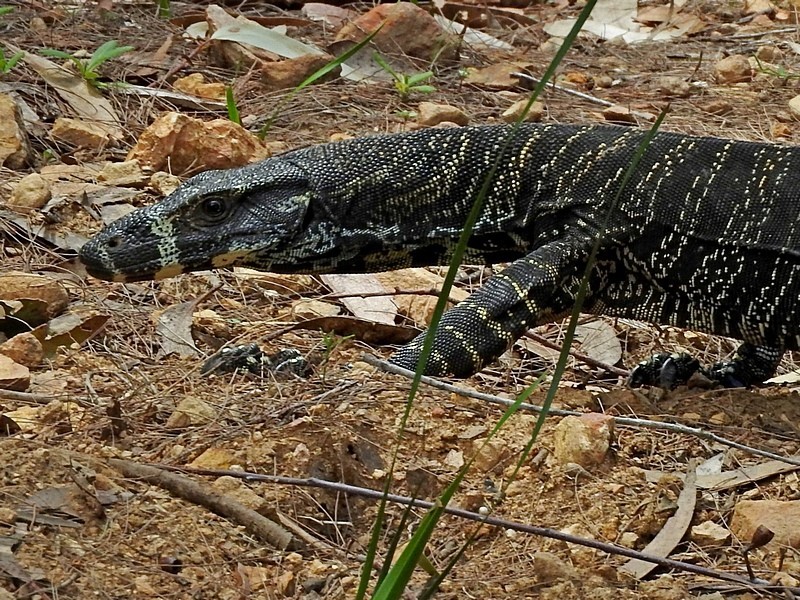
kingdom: Animalia
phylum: Chordata
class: Squamata
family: Varanidae
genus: Varanus
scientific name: Varanus varius
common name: Lace monitor
